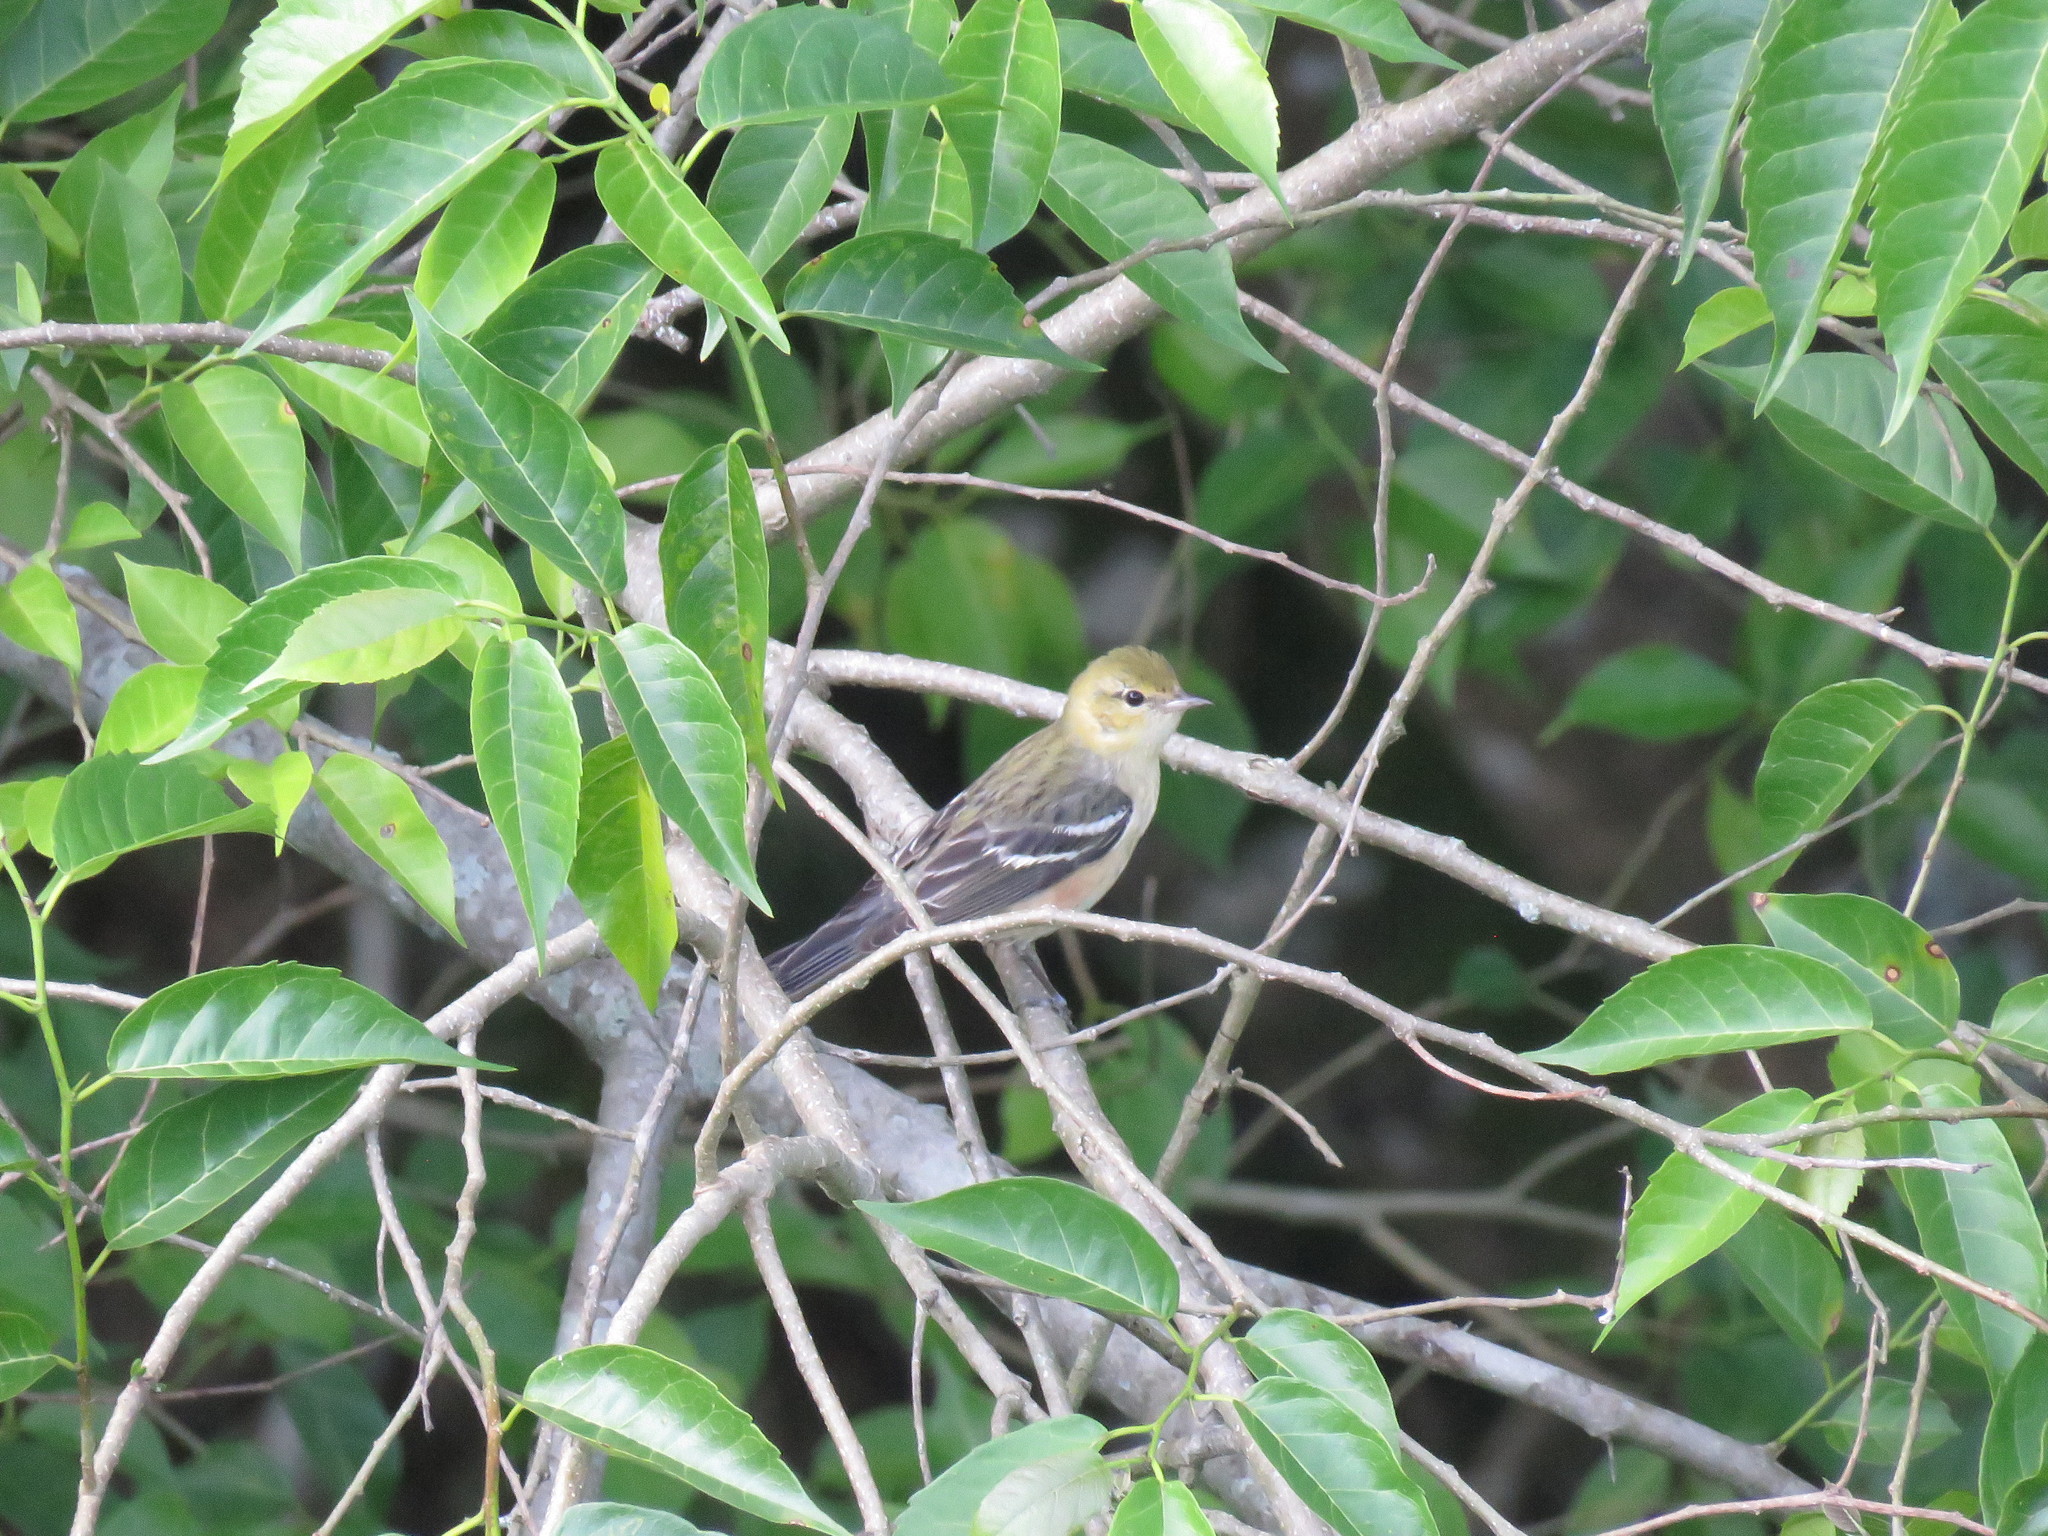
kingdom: Animalia
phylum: Chordata
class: Aves
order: Passeriformes
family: Parulidae
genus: Setophaga
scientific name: Setophaga castanea
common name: Bay-breasted warbler
